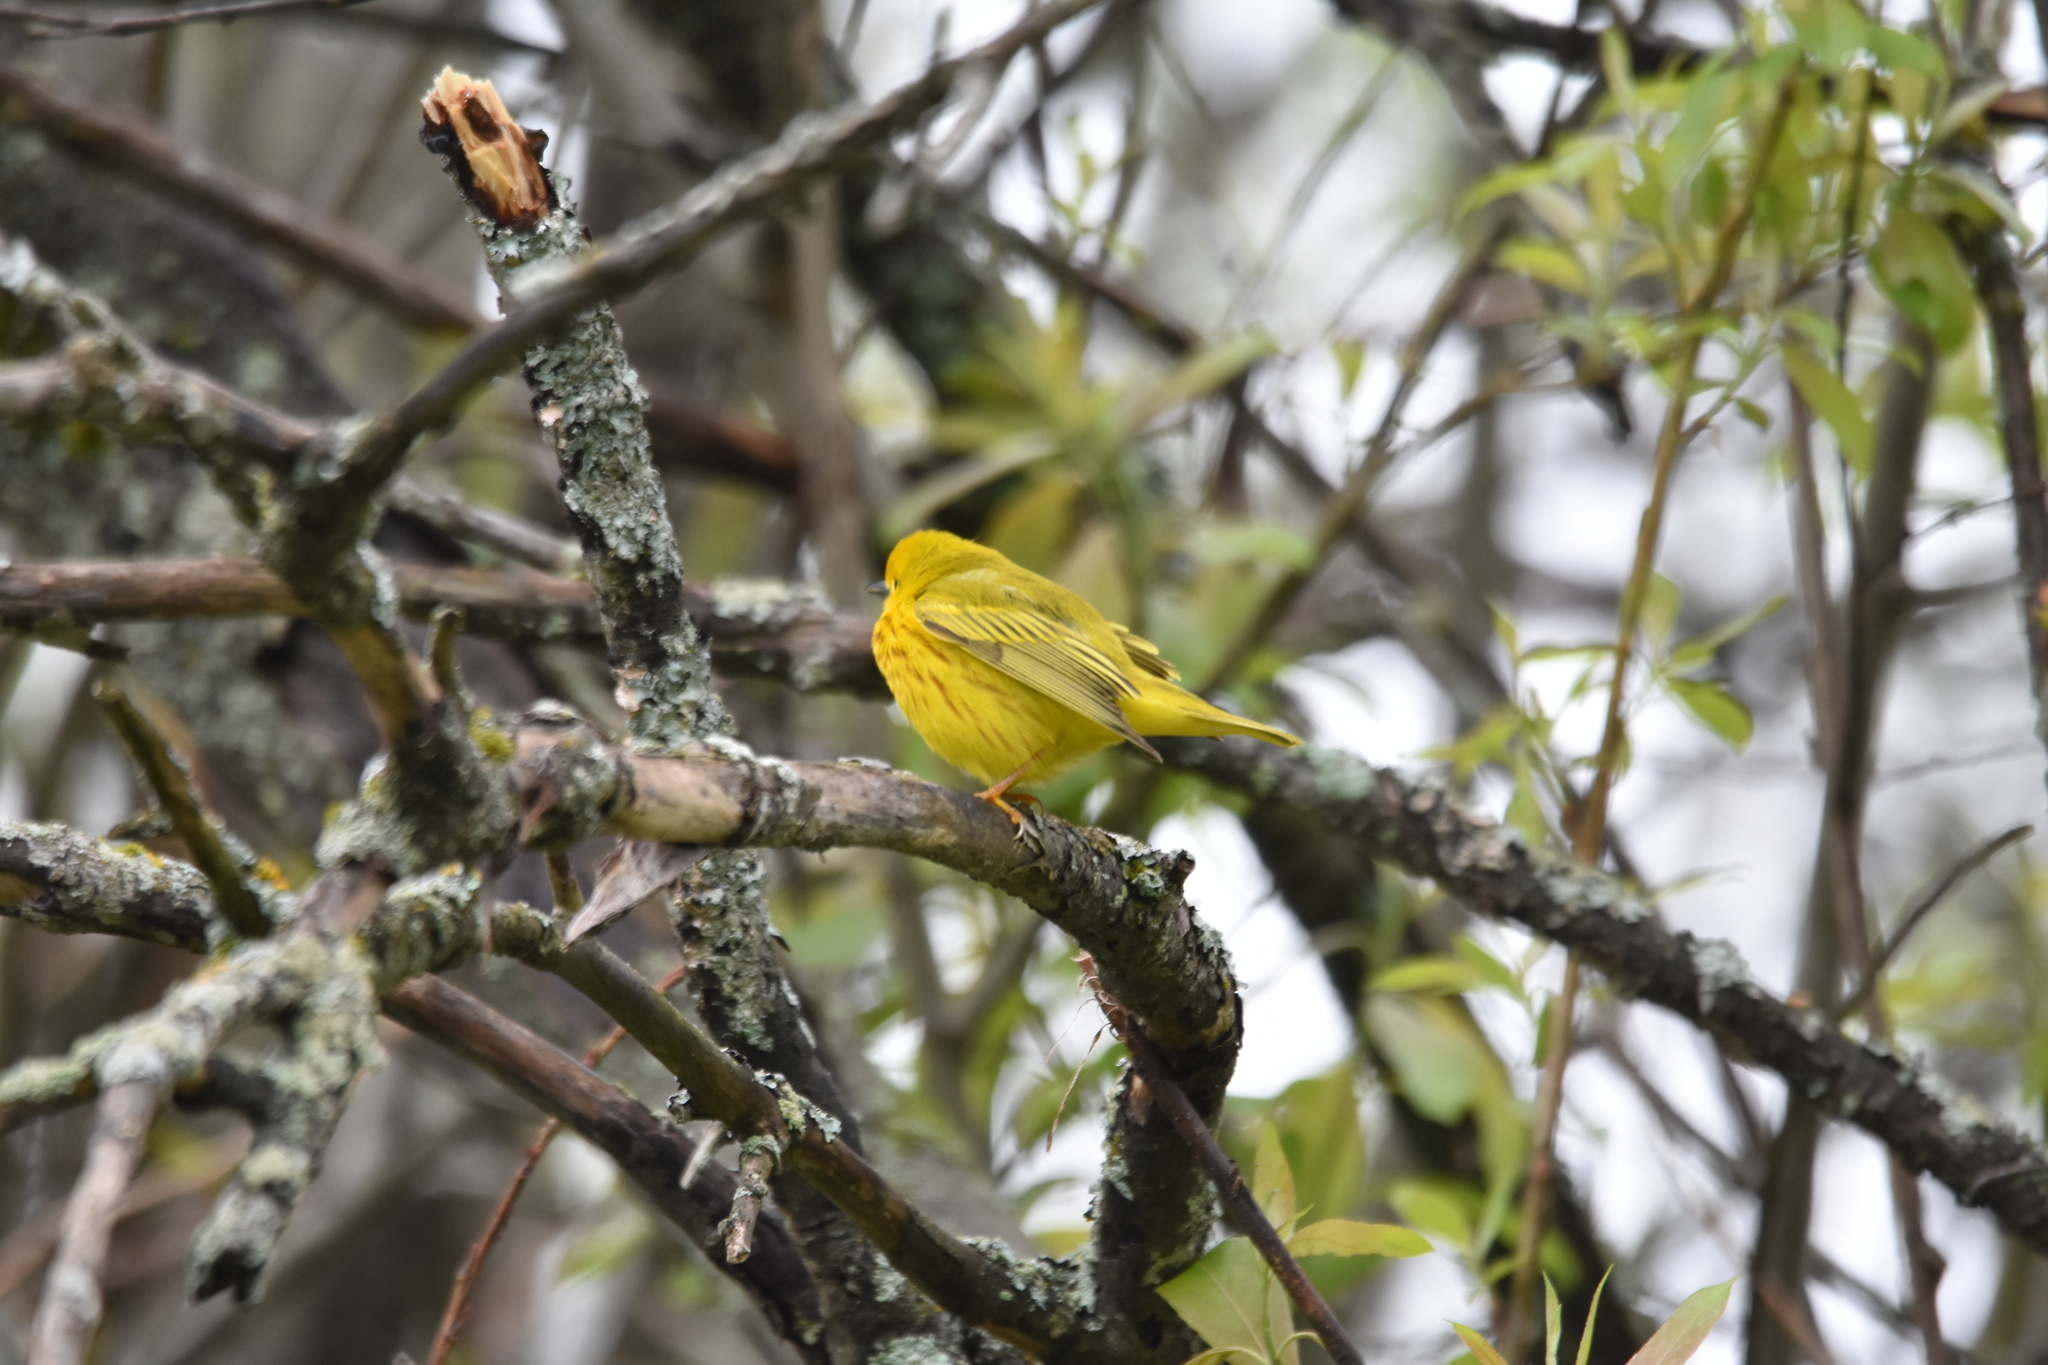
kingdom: Animalia
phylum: Chordata
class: Aves
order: Passeriformes
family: Parulidae
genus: Setophaga
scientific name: Setophaga petechia
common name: Yellow warbler
